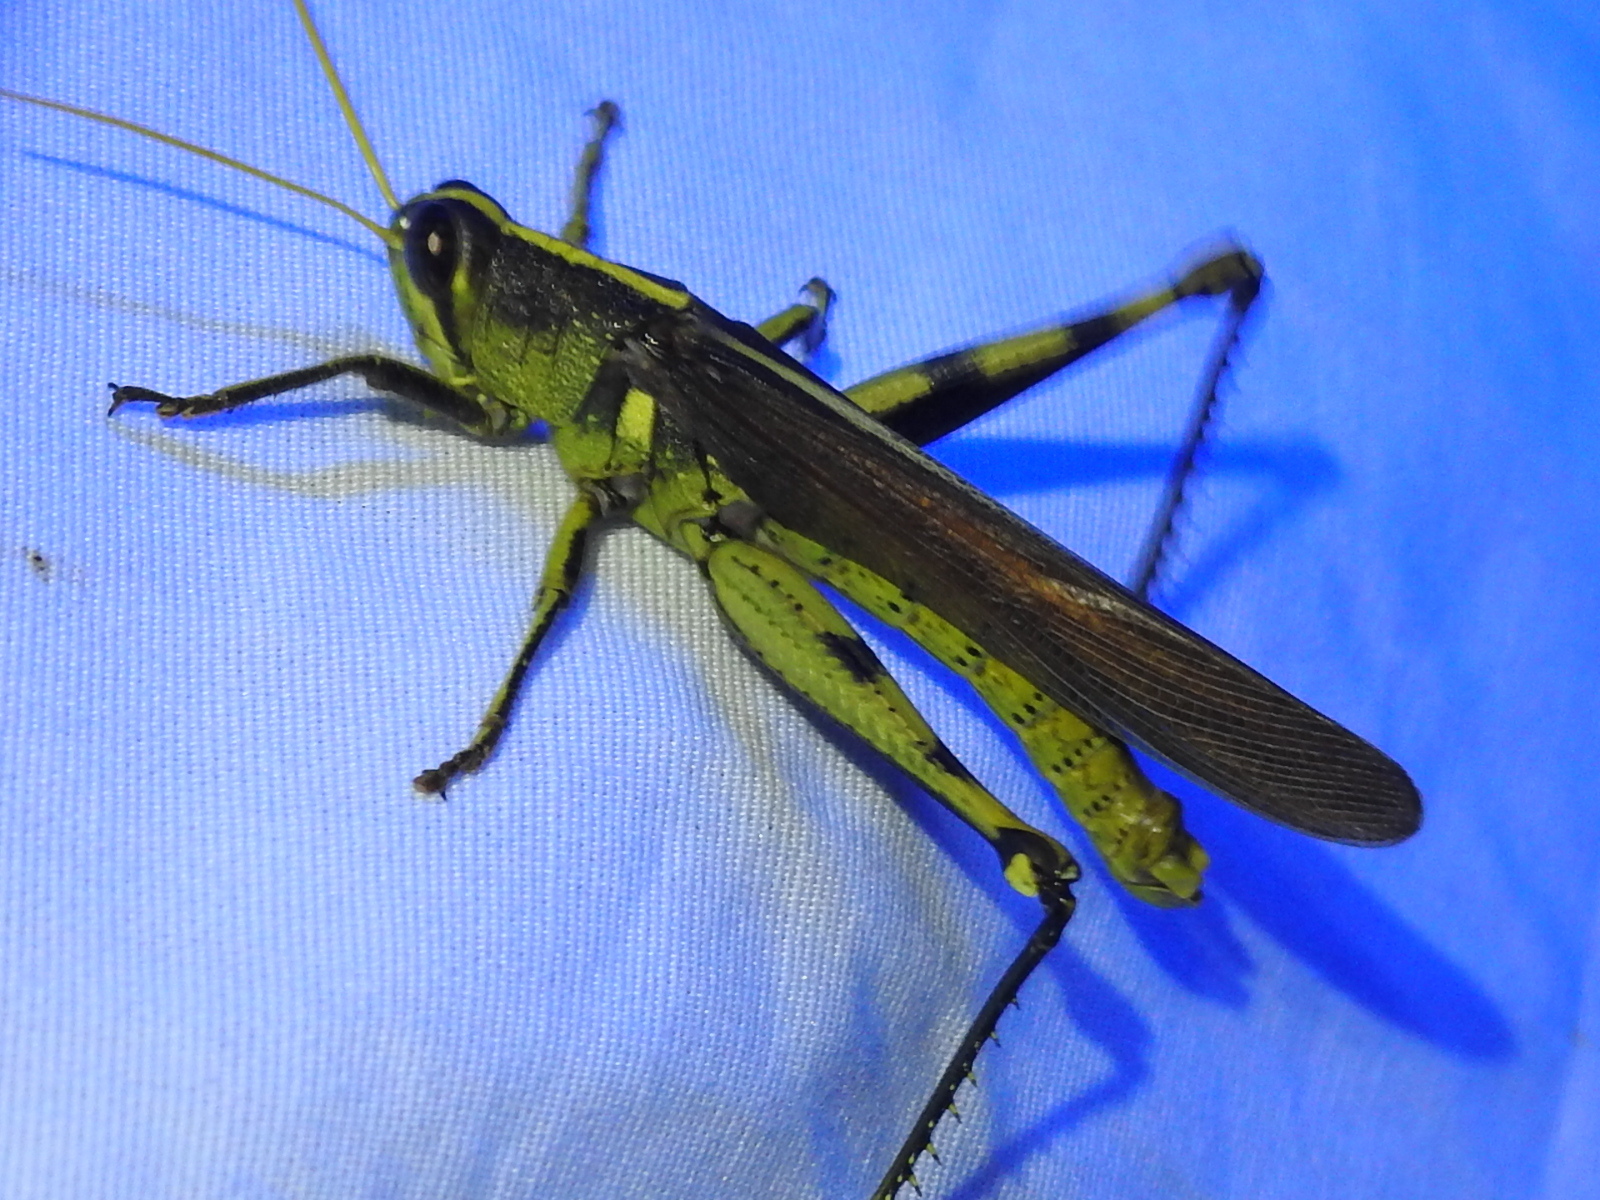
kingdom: Animalia
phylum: Arthropoda
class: Insecta
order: Orthoptera
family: Acrididae
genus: Schistocerca
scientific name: Schistocerca obscura
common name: Obscure bird grasshopper
